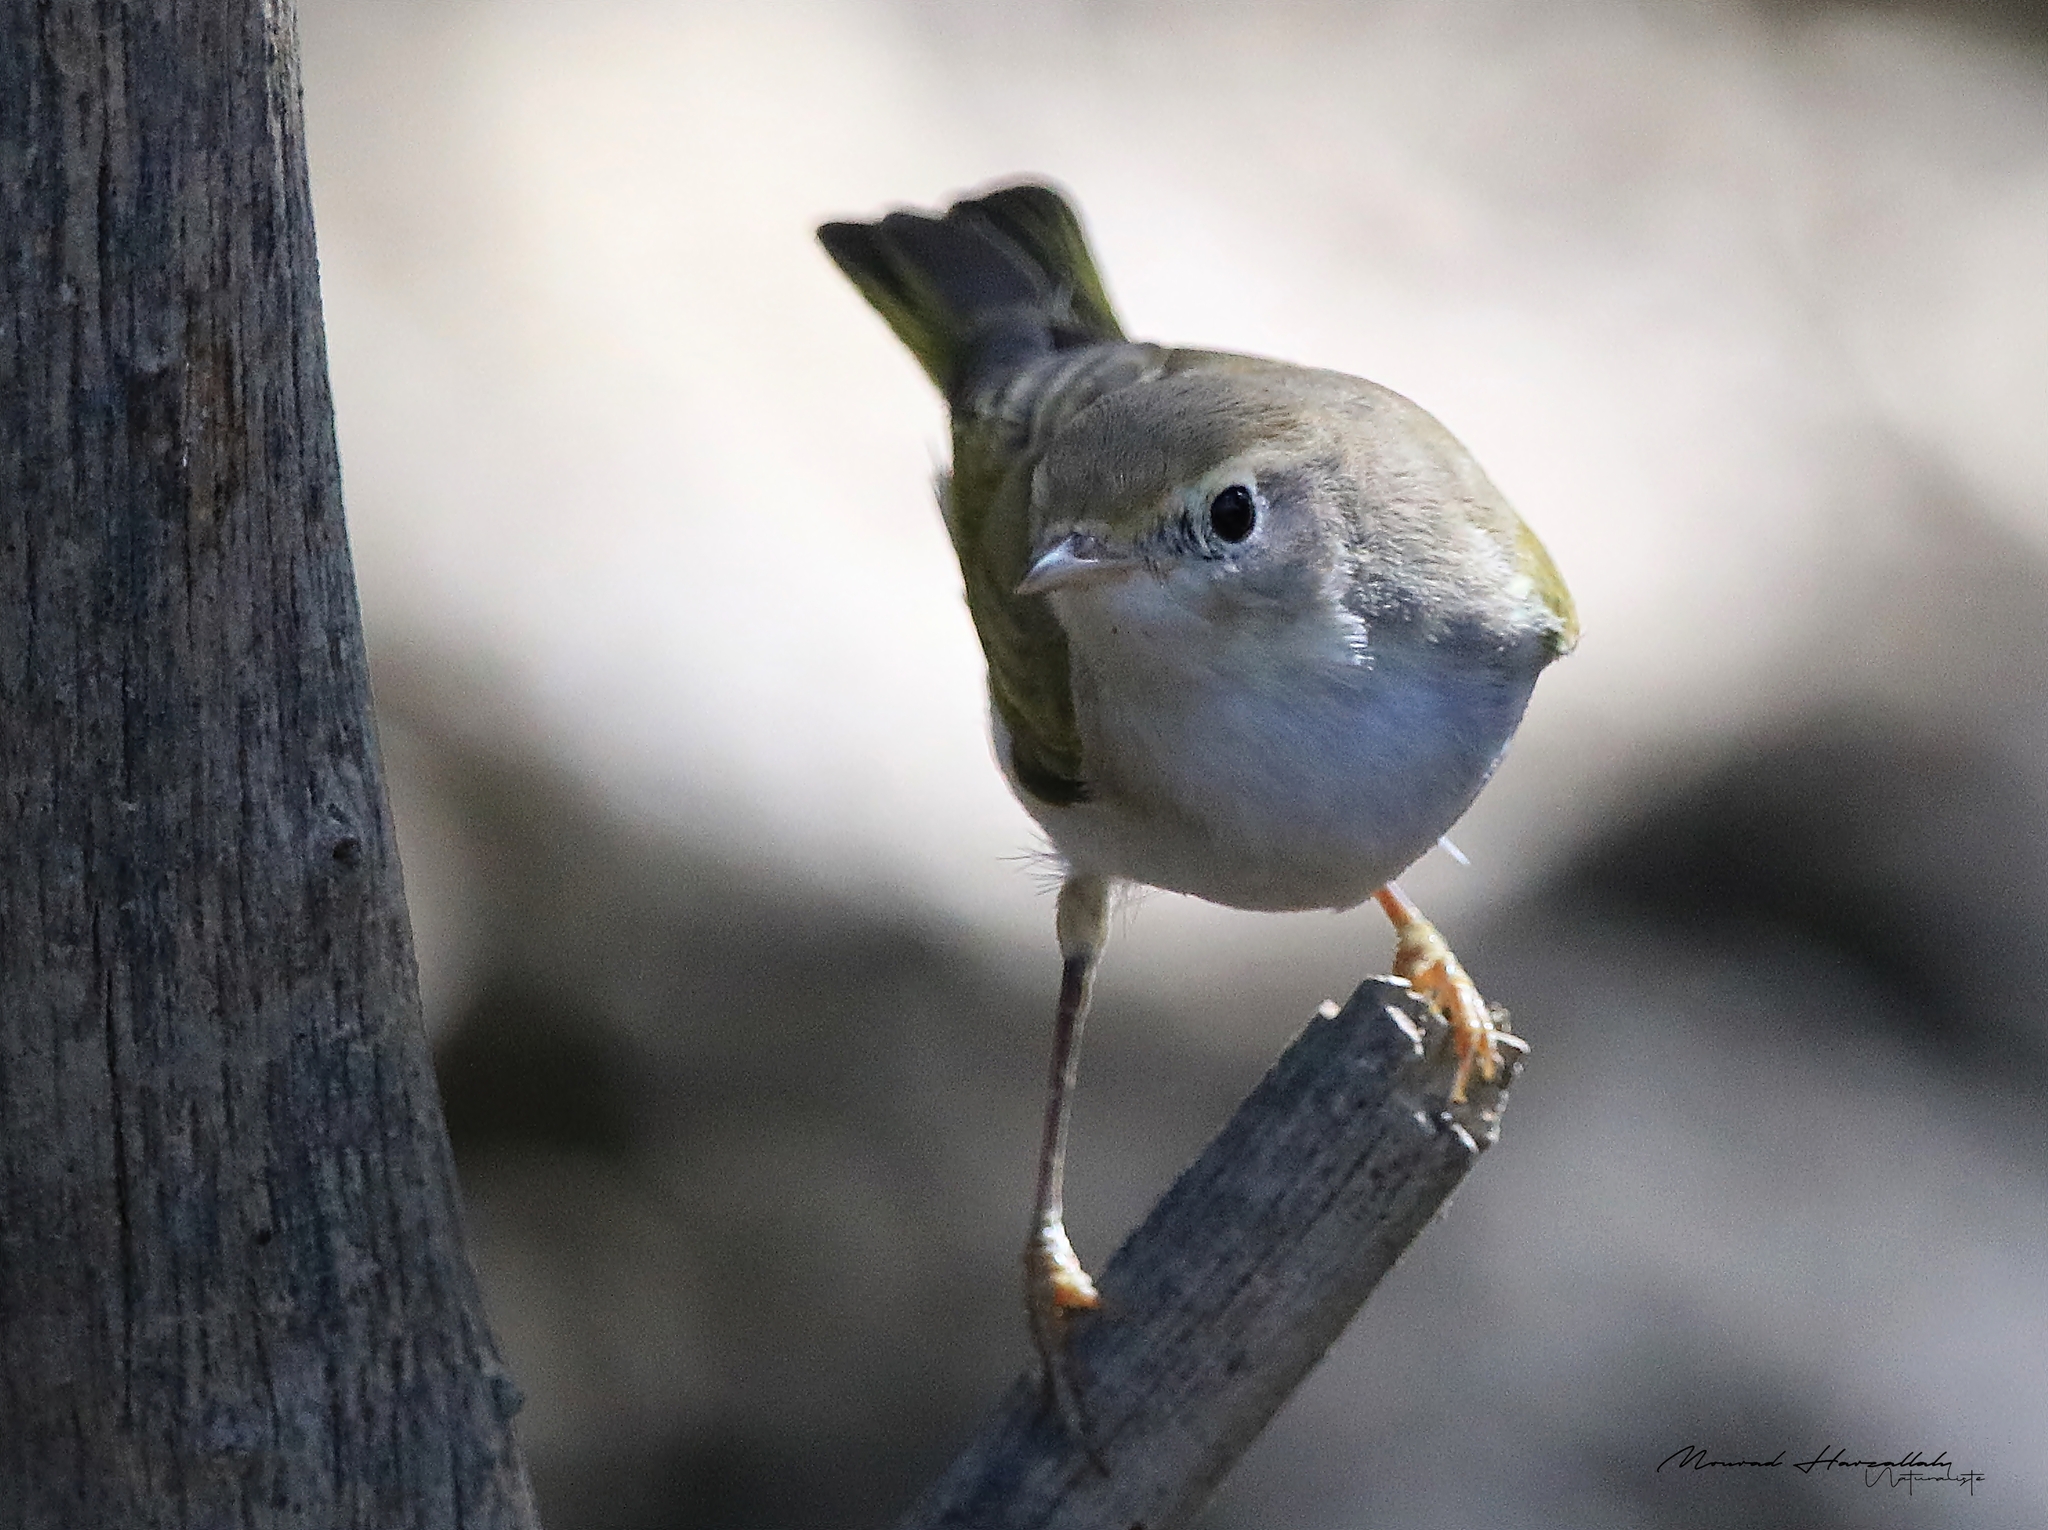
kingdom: Animalia
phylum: Chordata
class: Aves
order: Passeriformes
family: Phylloscopidae
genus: Phylloscopus
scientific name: Phylloscopus bonelli
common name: Western bonelli's warbler
